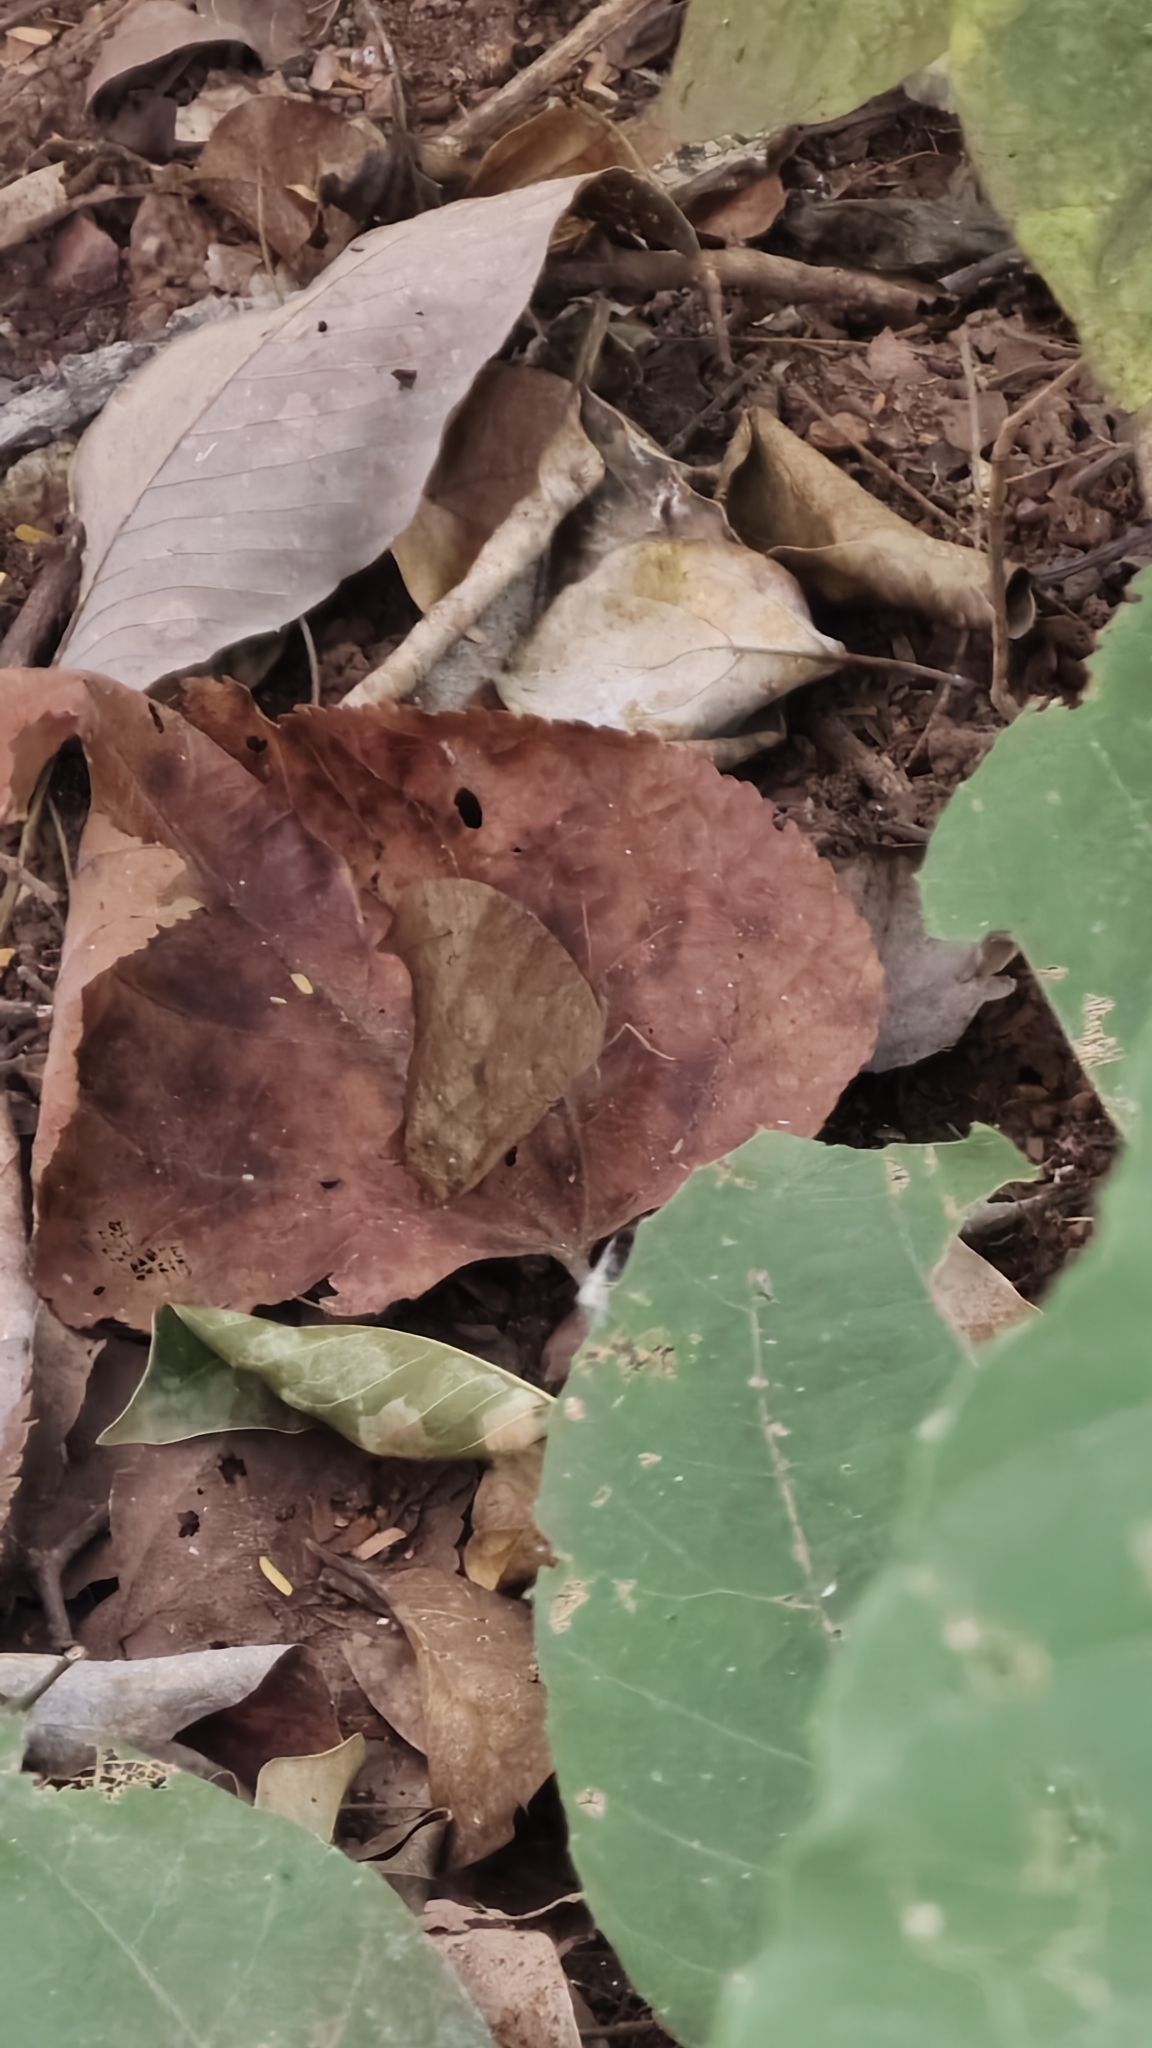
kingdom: Animalia
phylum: Arthropoda
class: Insecta
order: Lepidoptera
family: Nymphalidae
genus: Melanitis
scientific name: Melanitis leda
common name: Twilight brown
